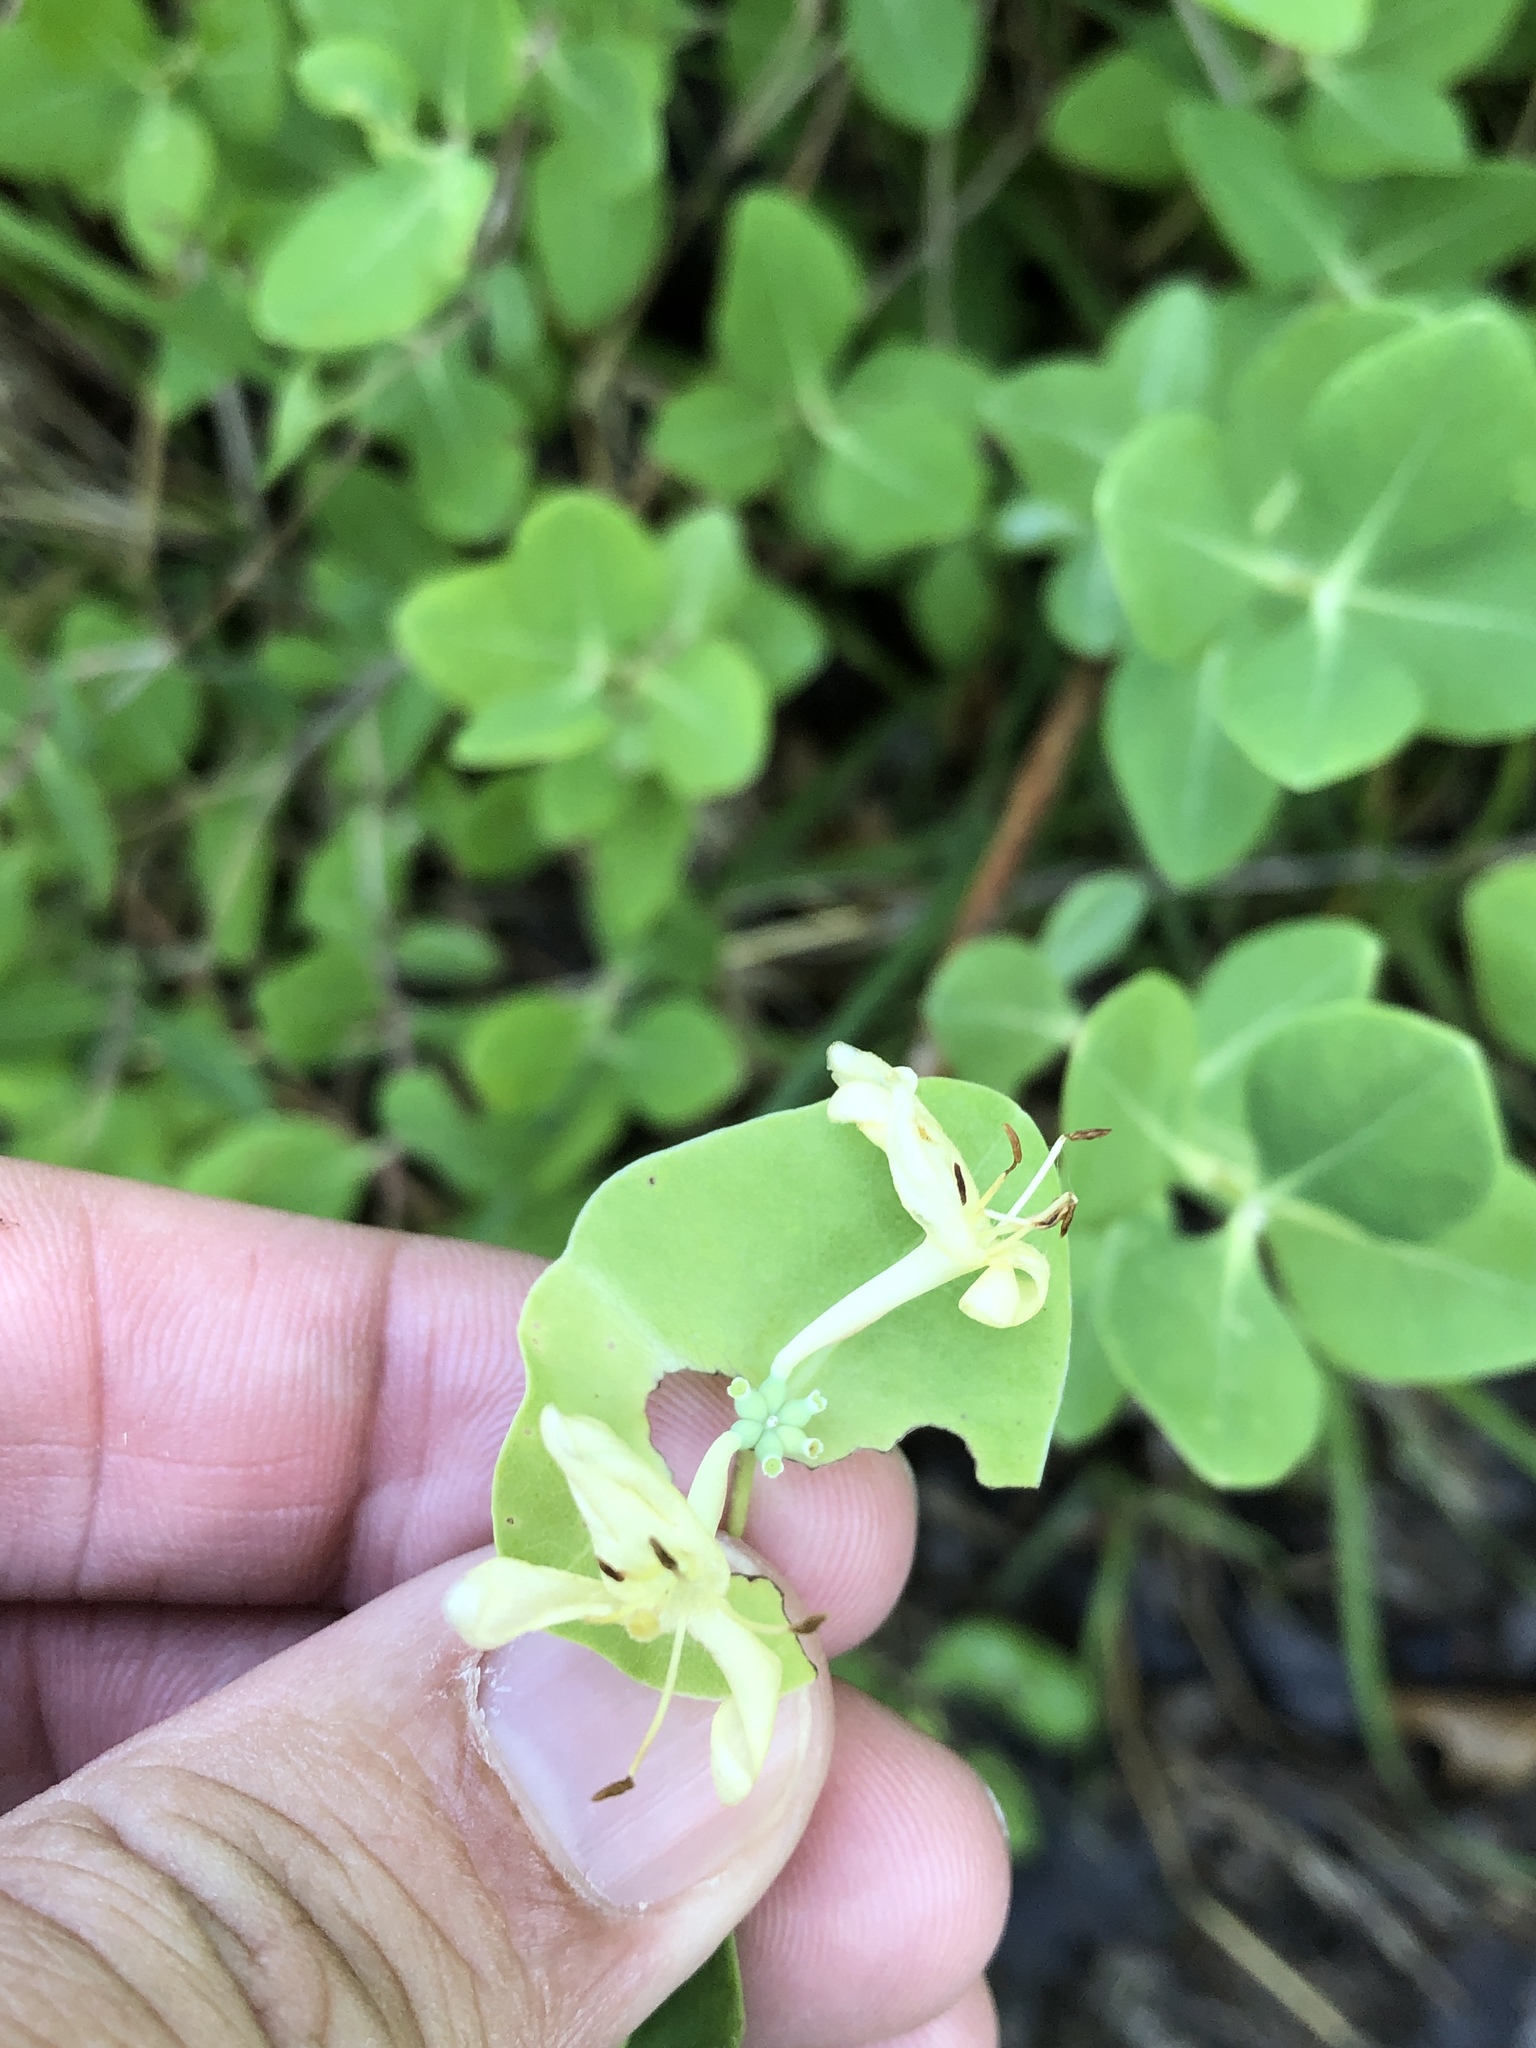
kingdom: Plantae
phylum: Tracheophyta
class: Magnoliopsida
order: Dipsacales
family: Caprifoliaceae
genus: Lonicera
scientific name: Lonicera albiflora
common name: White honeysuckle
